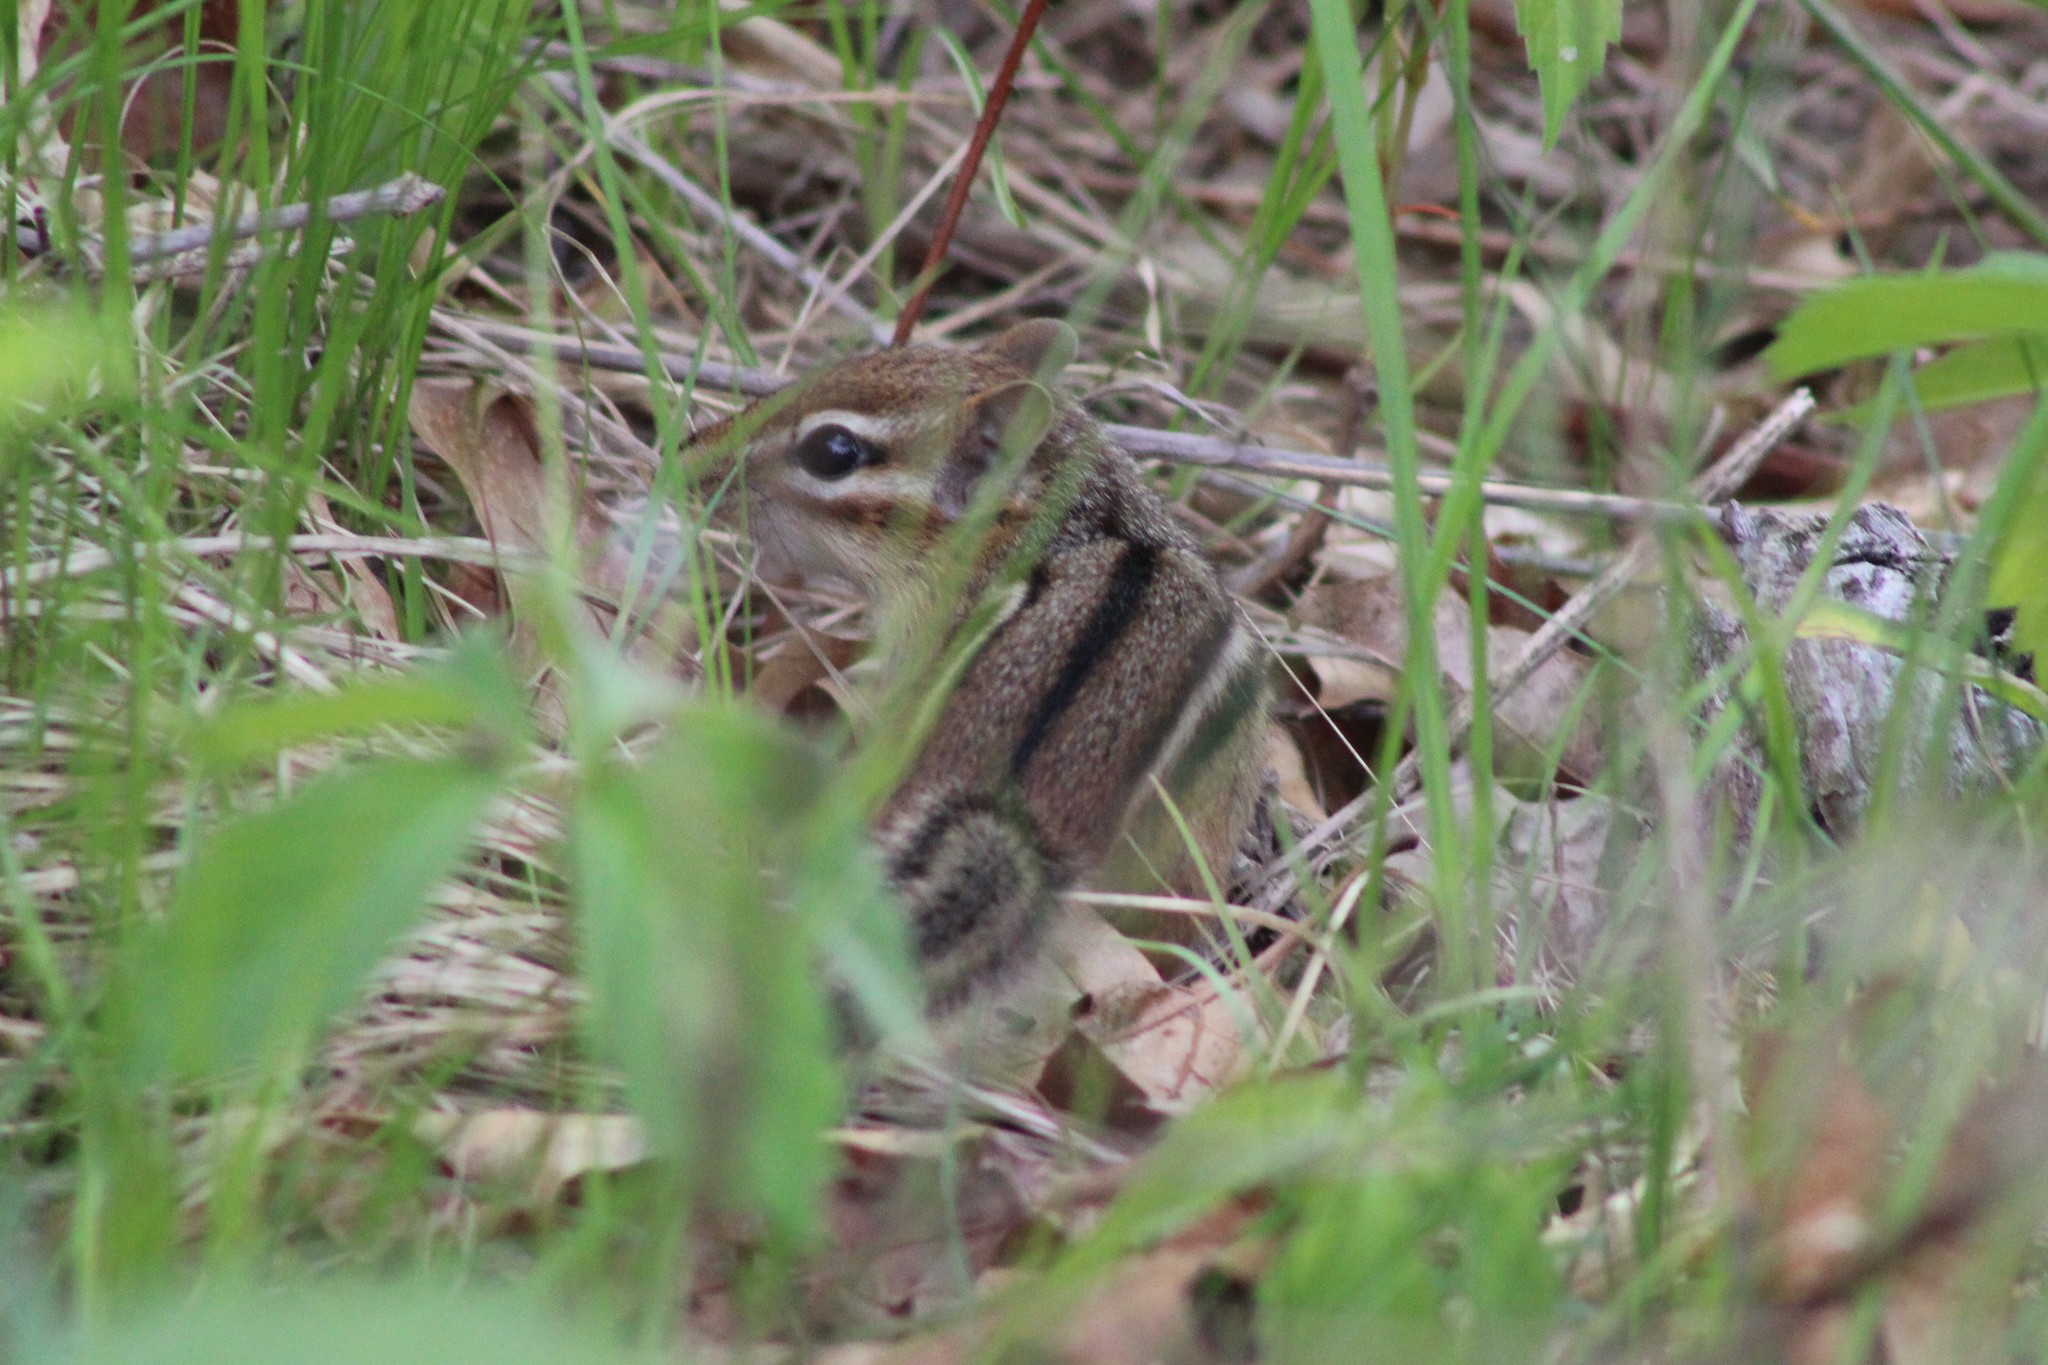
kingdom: Animalia
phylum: Chordata
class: Mammalia
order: Rodentia
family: Sciuridae
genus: Tamias
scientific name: Tamias striatus
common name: Eastern chipmunk
